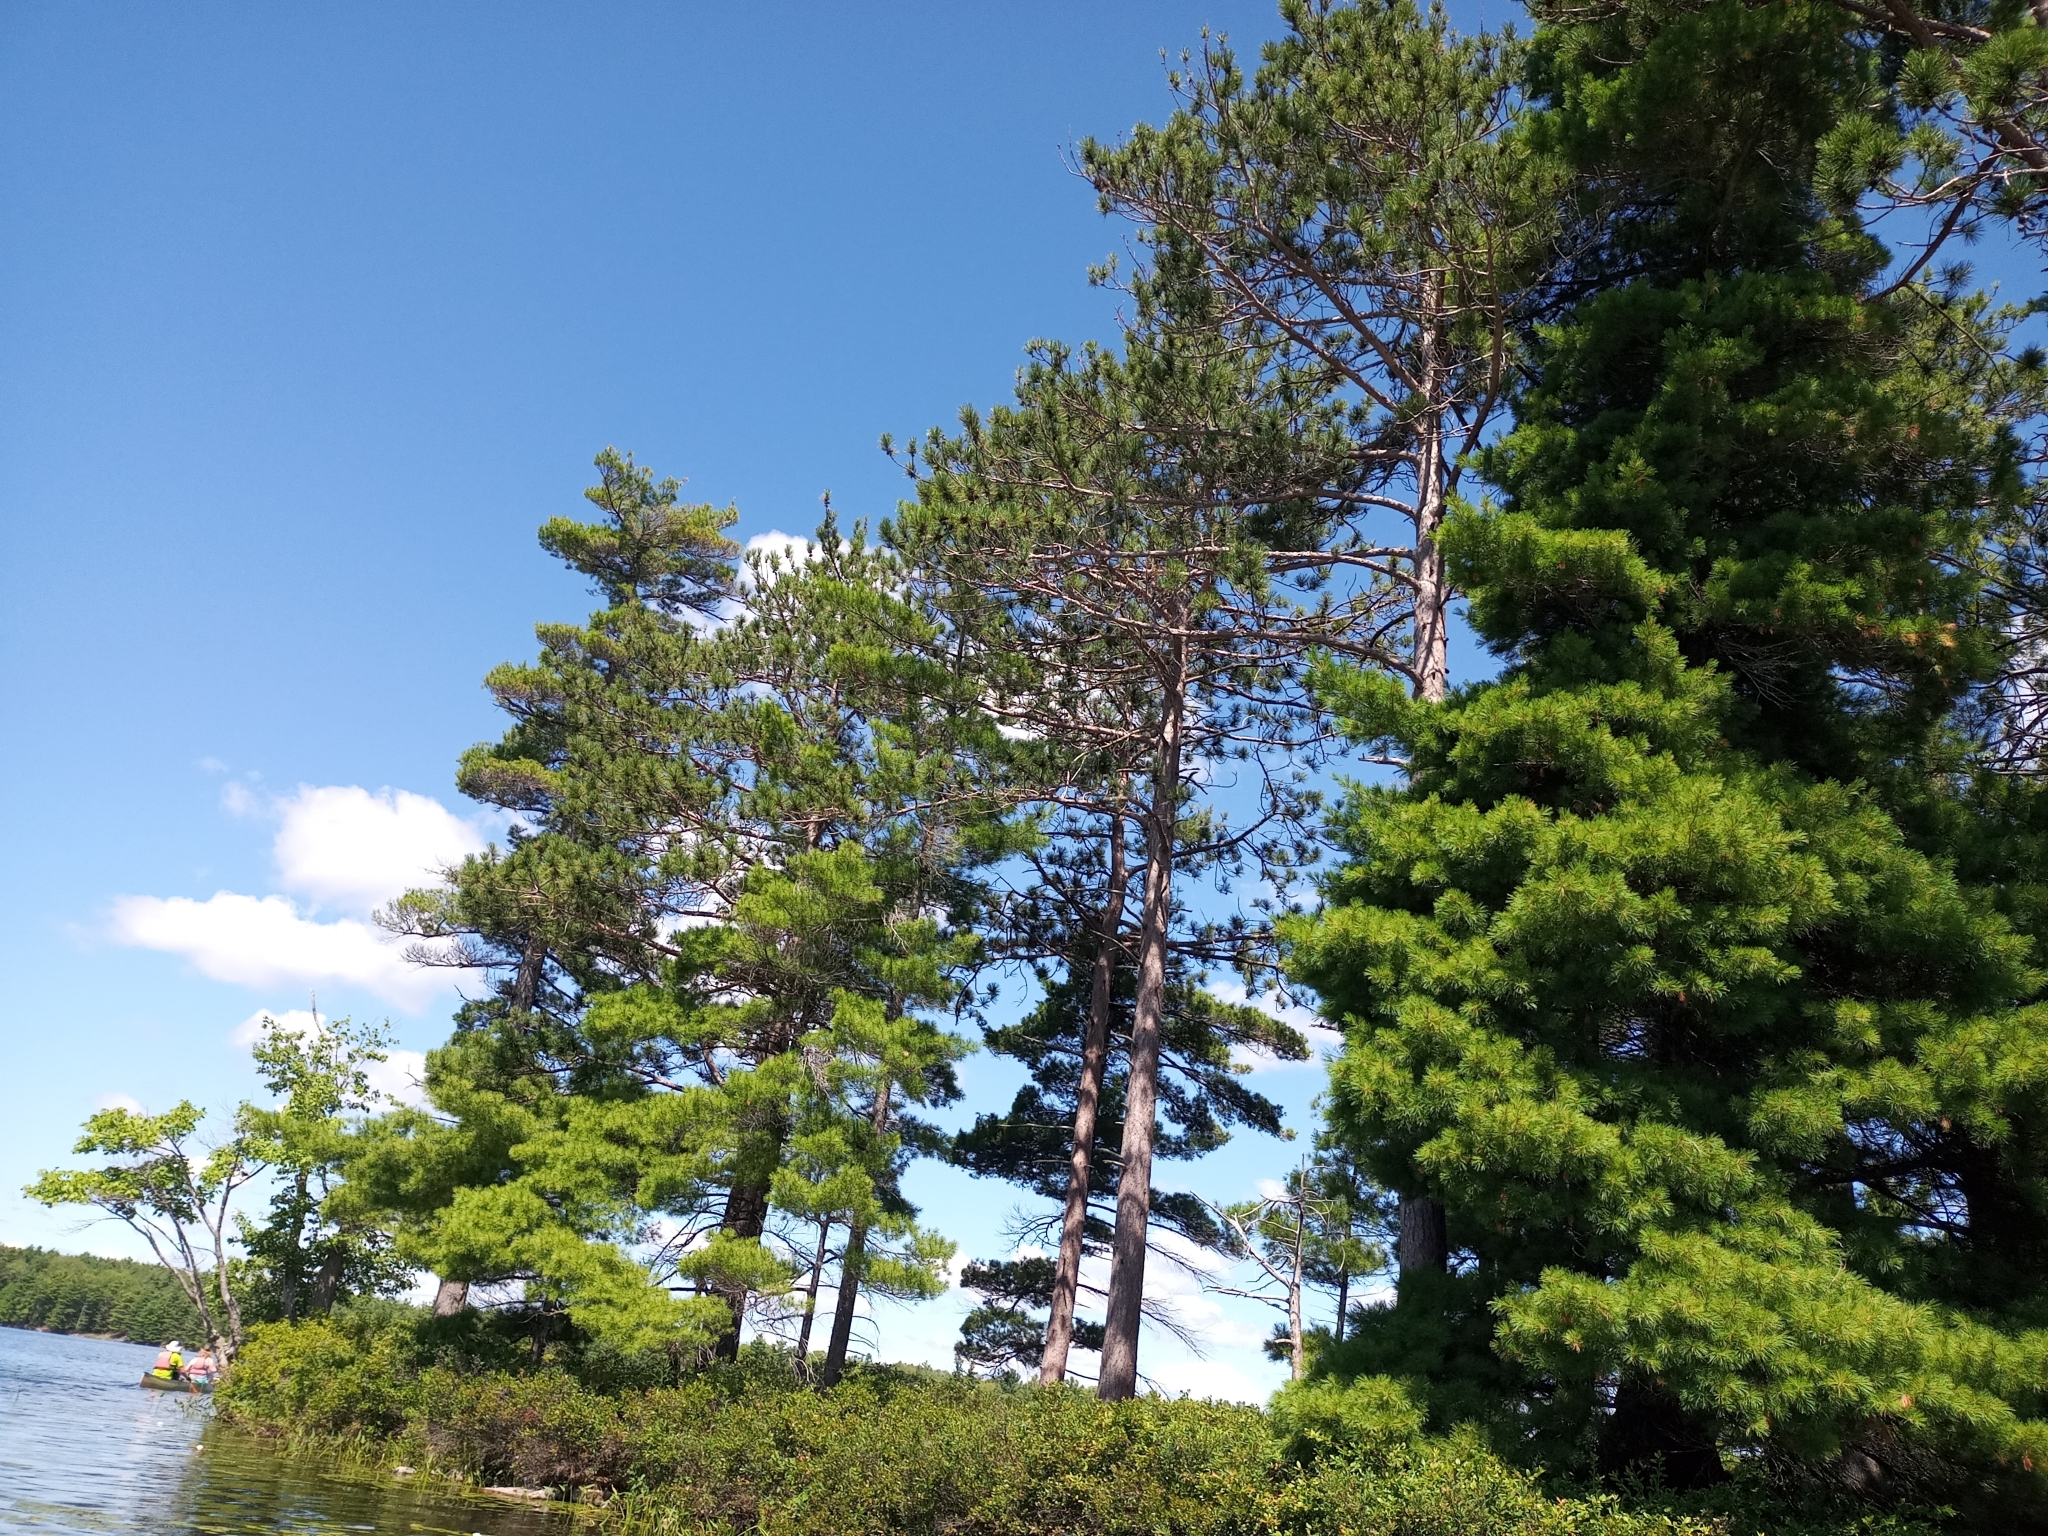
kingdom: Plantae
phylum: Tracheophyta
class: Pinopsida
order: Pinales
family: Pinaceae
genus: Pinus
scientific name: Pinus resinosa
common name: Norway pine
